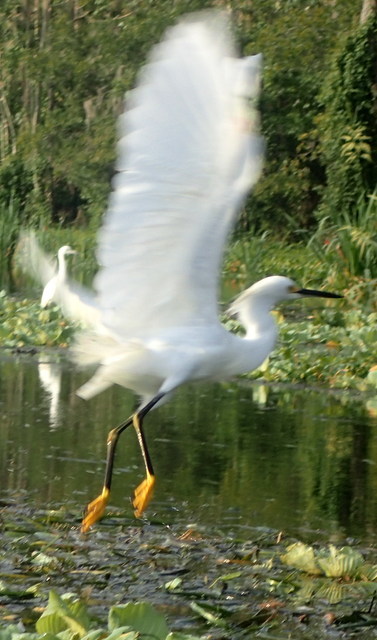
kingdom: Animalia
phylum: Chordata
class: Aves
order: Pelecaniformes
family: Ardeidae
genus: Egretta
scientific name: Egretta thula
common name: Snowy egret
